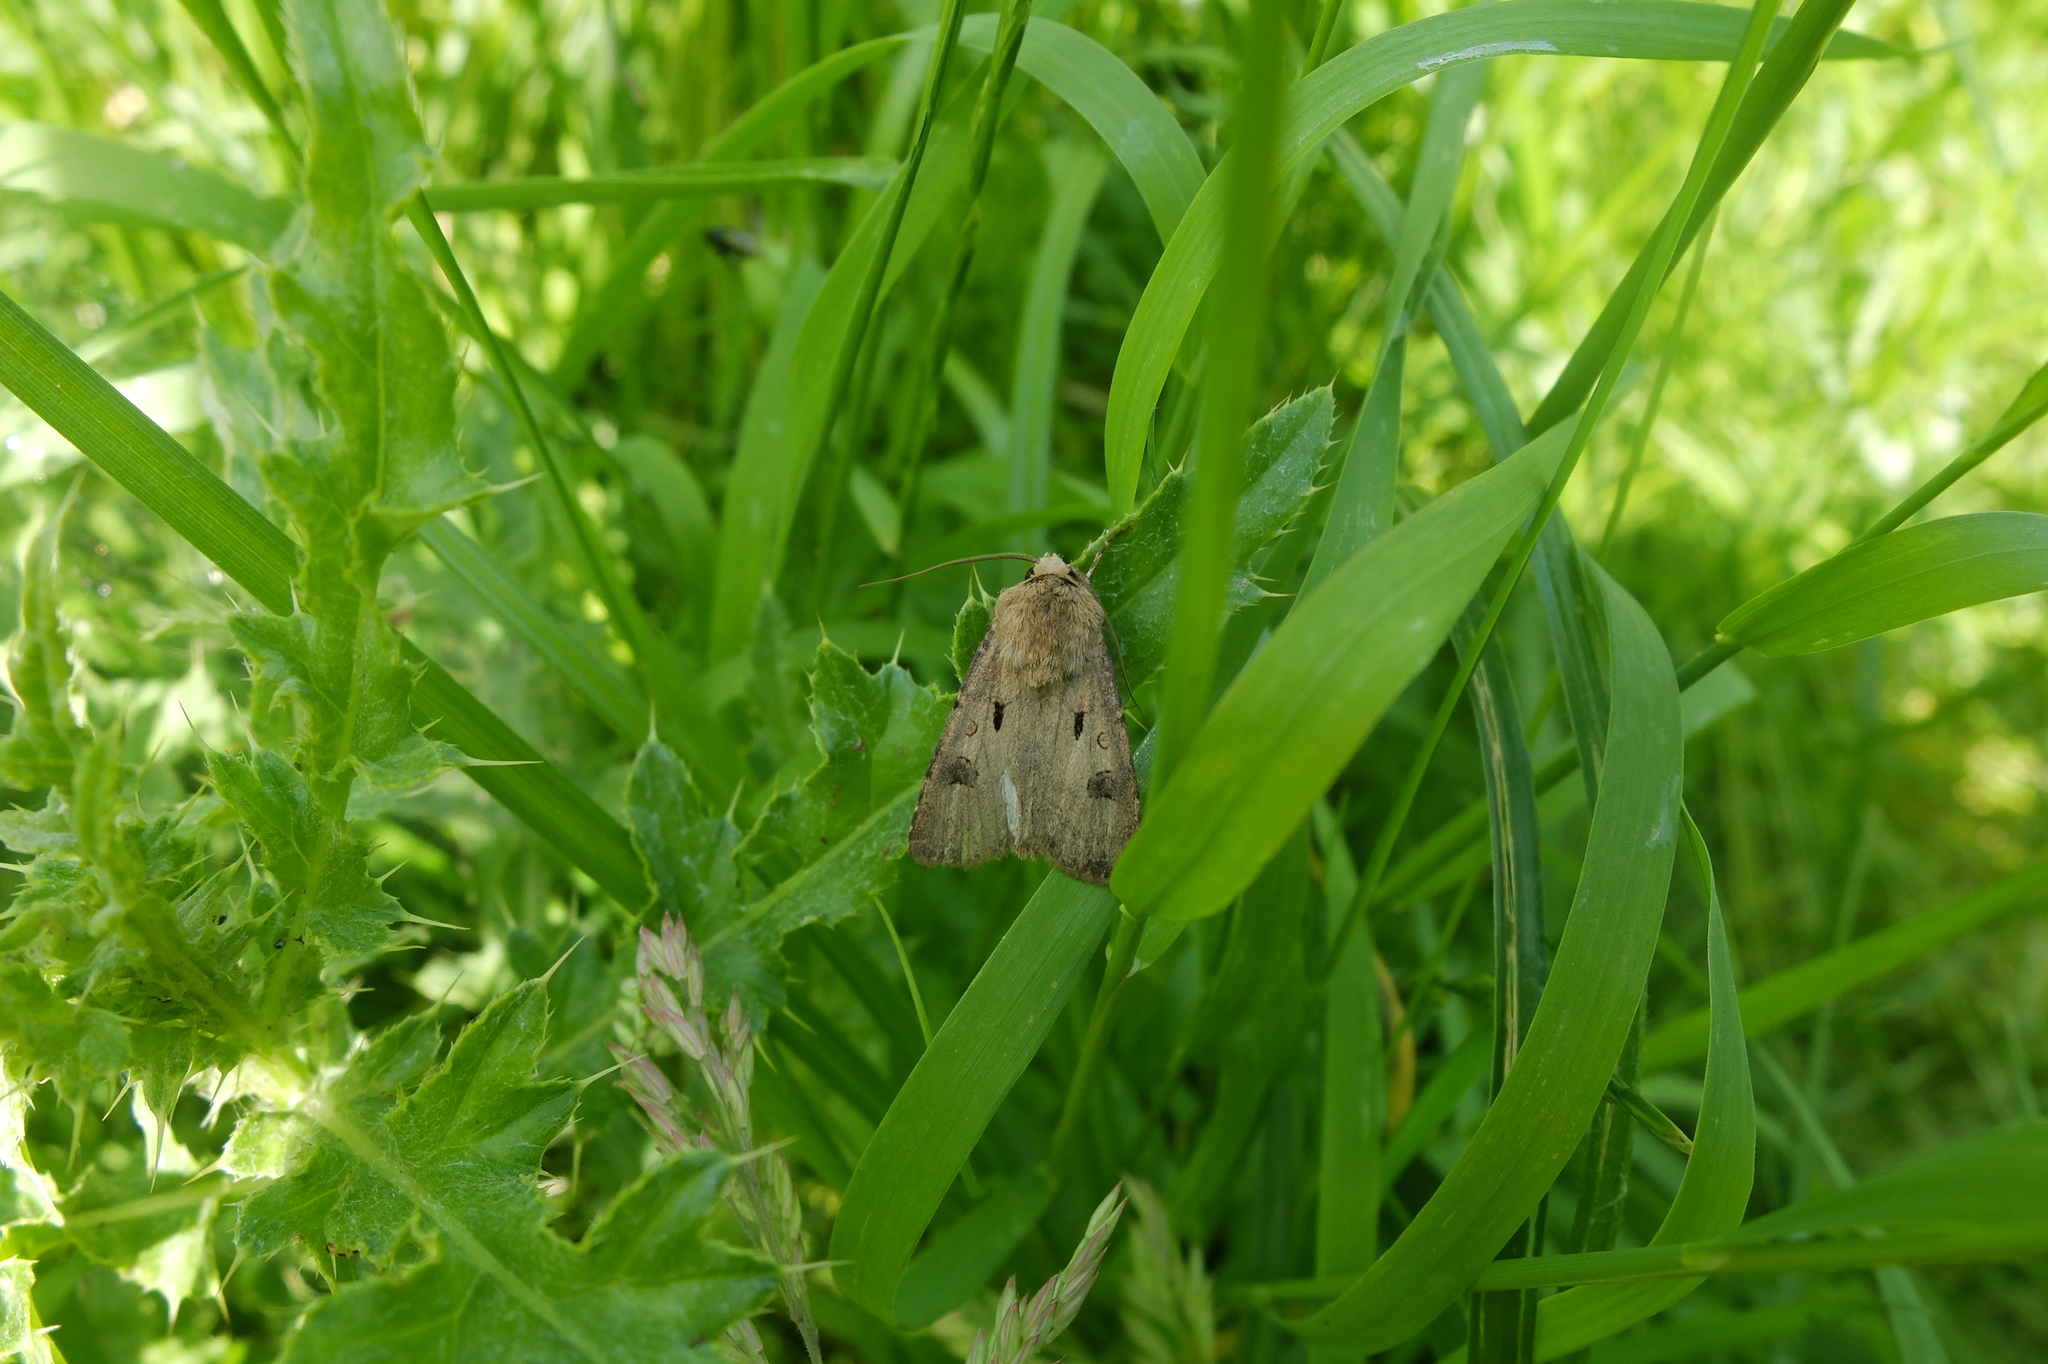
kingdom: Animalia
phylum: Arthropoda
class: Insecta
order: Lepidoptera
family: Noctuidae
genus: Agrotis
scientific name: Agrotis exclamationis
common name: Heart and dart
